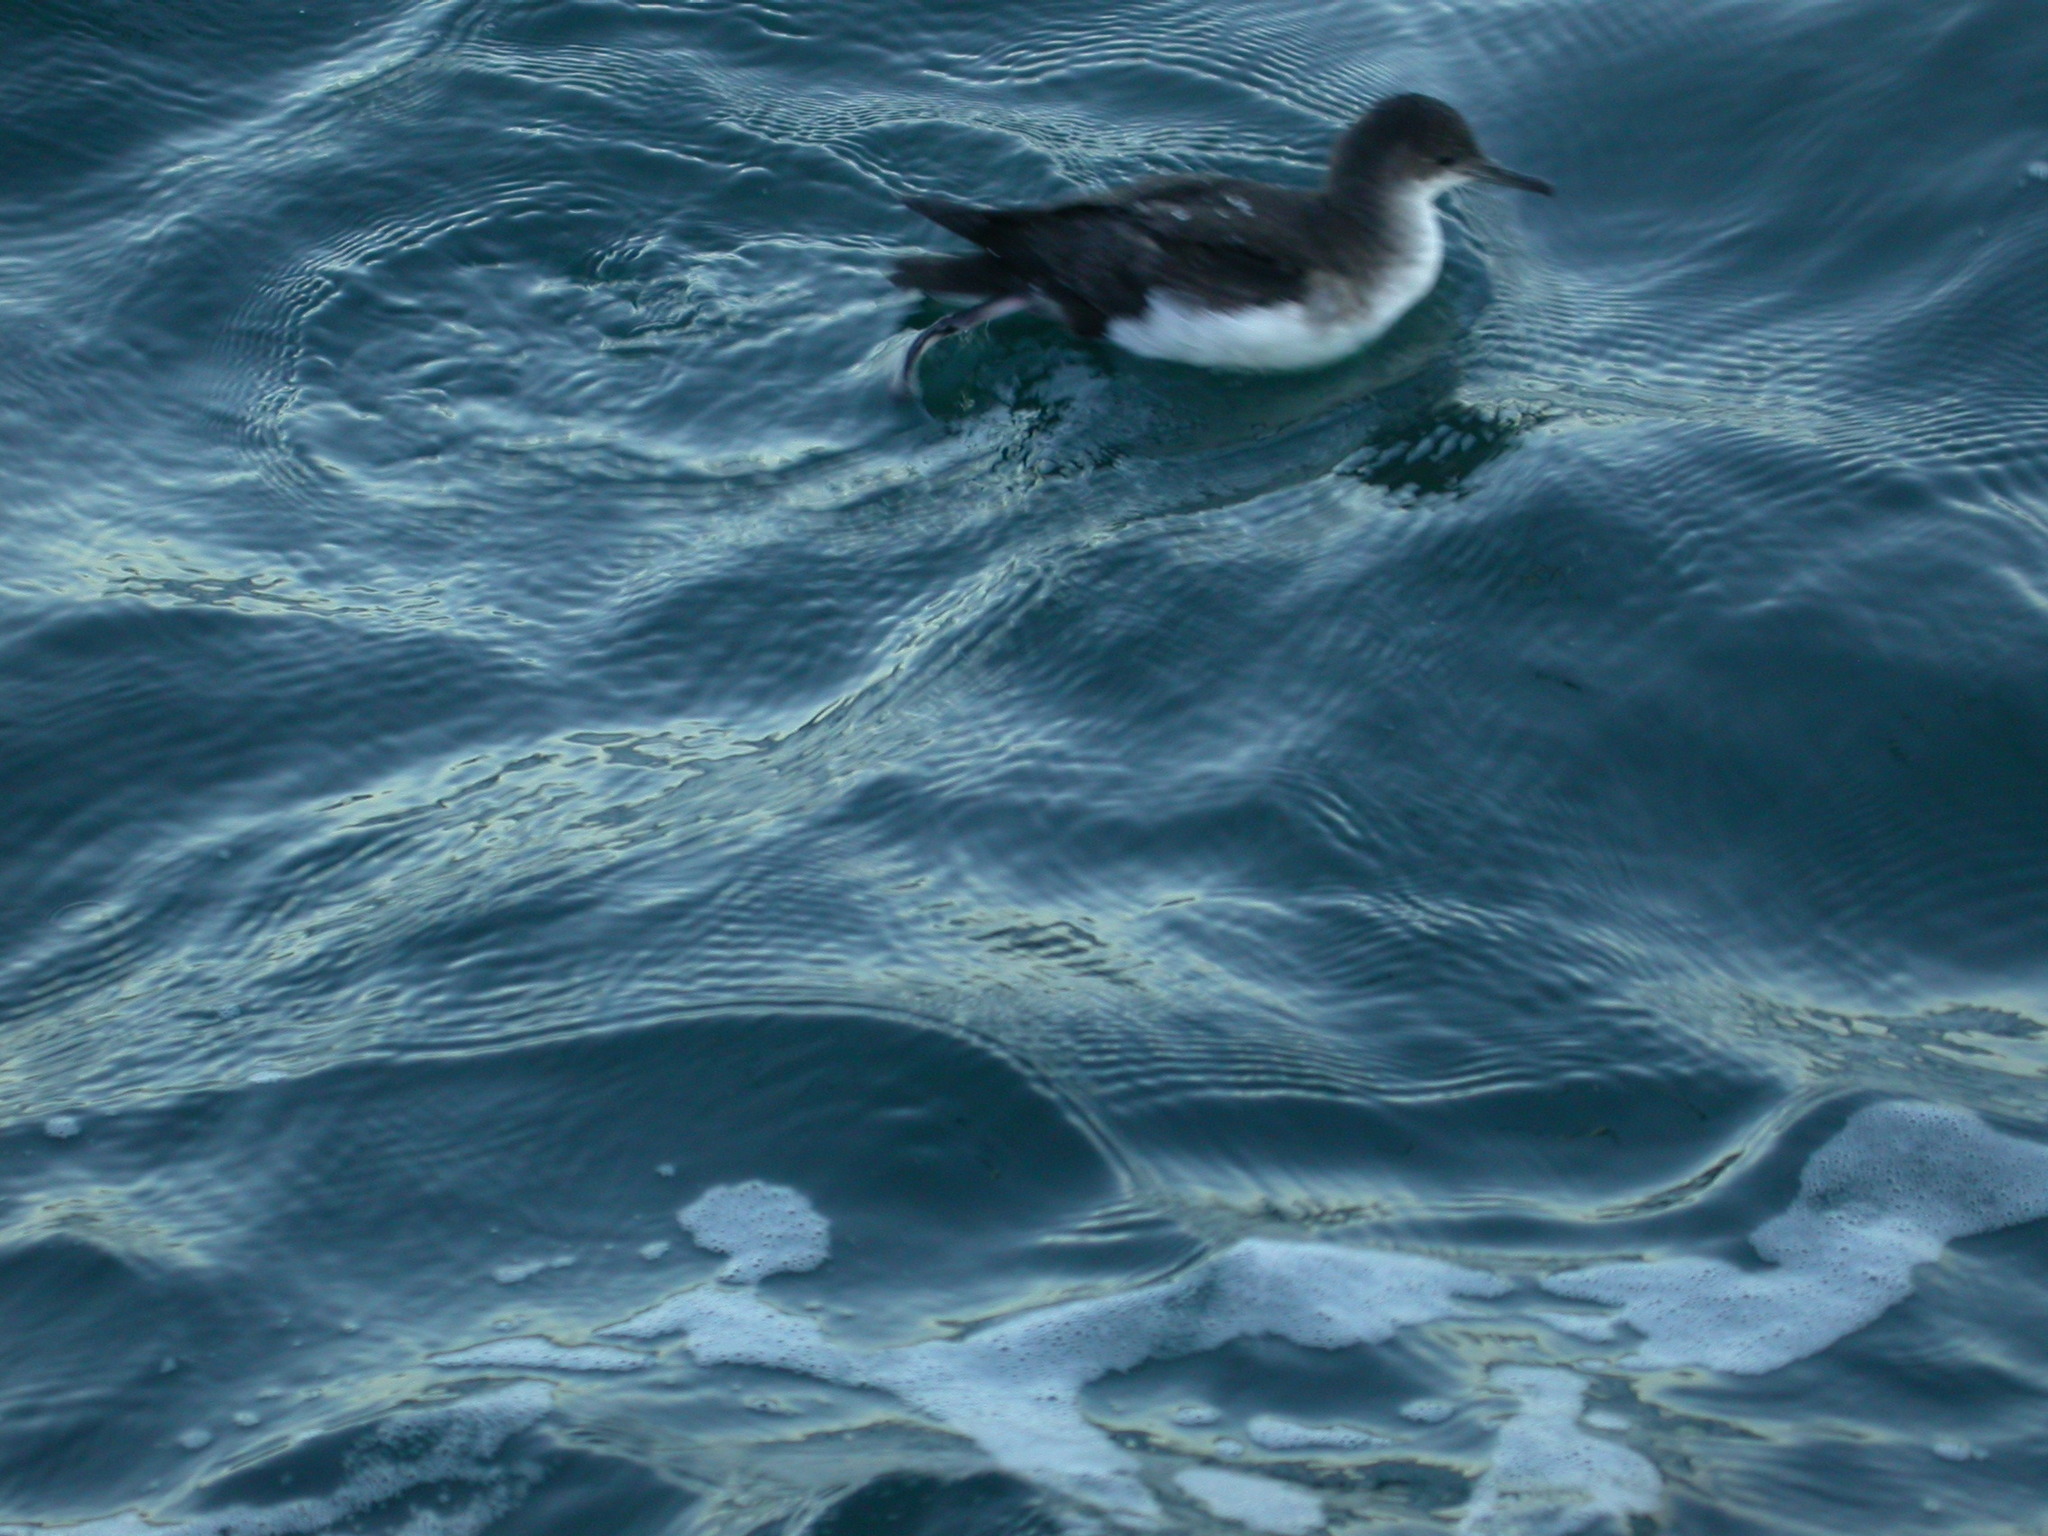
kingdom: Animalia
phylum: Chordata
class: Aves
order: Procellariiformes
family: Procellariidae
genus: Puffinus
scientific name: Puffinus gavia
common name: Fluttering shearwater
